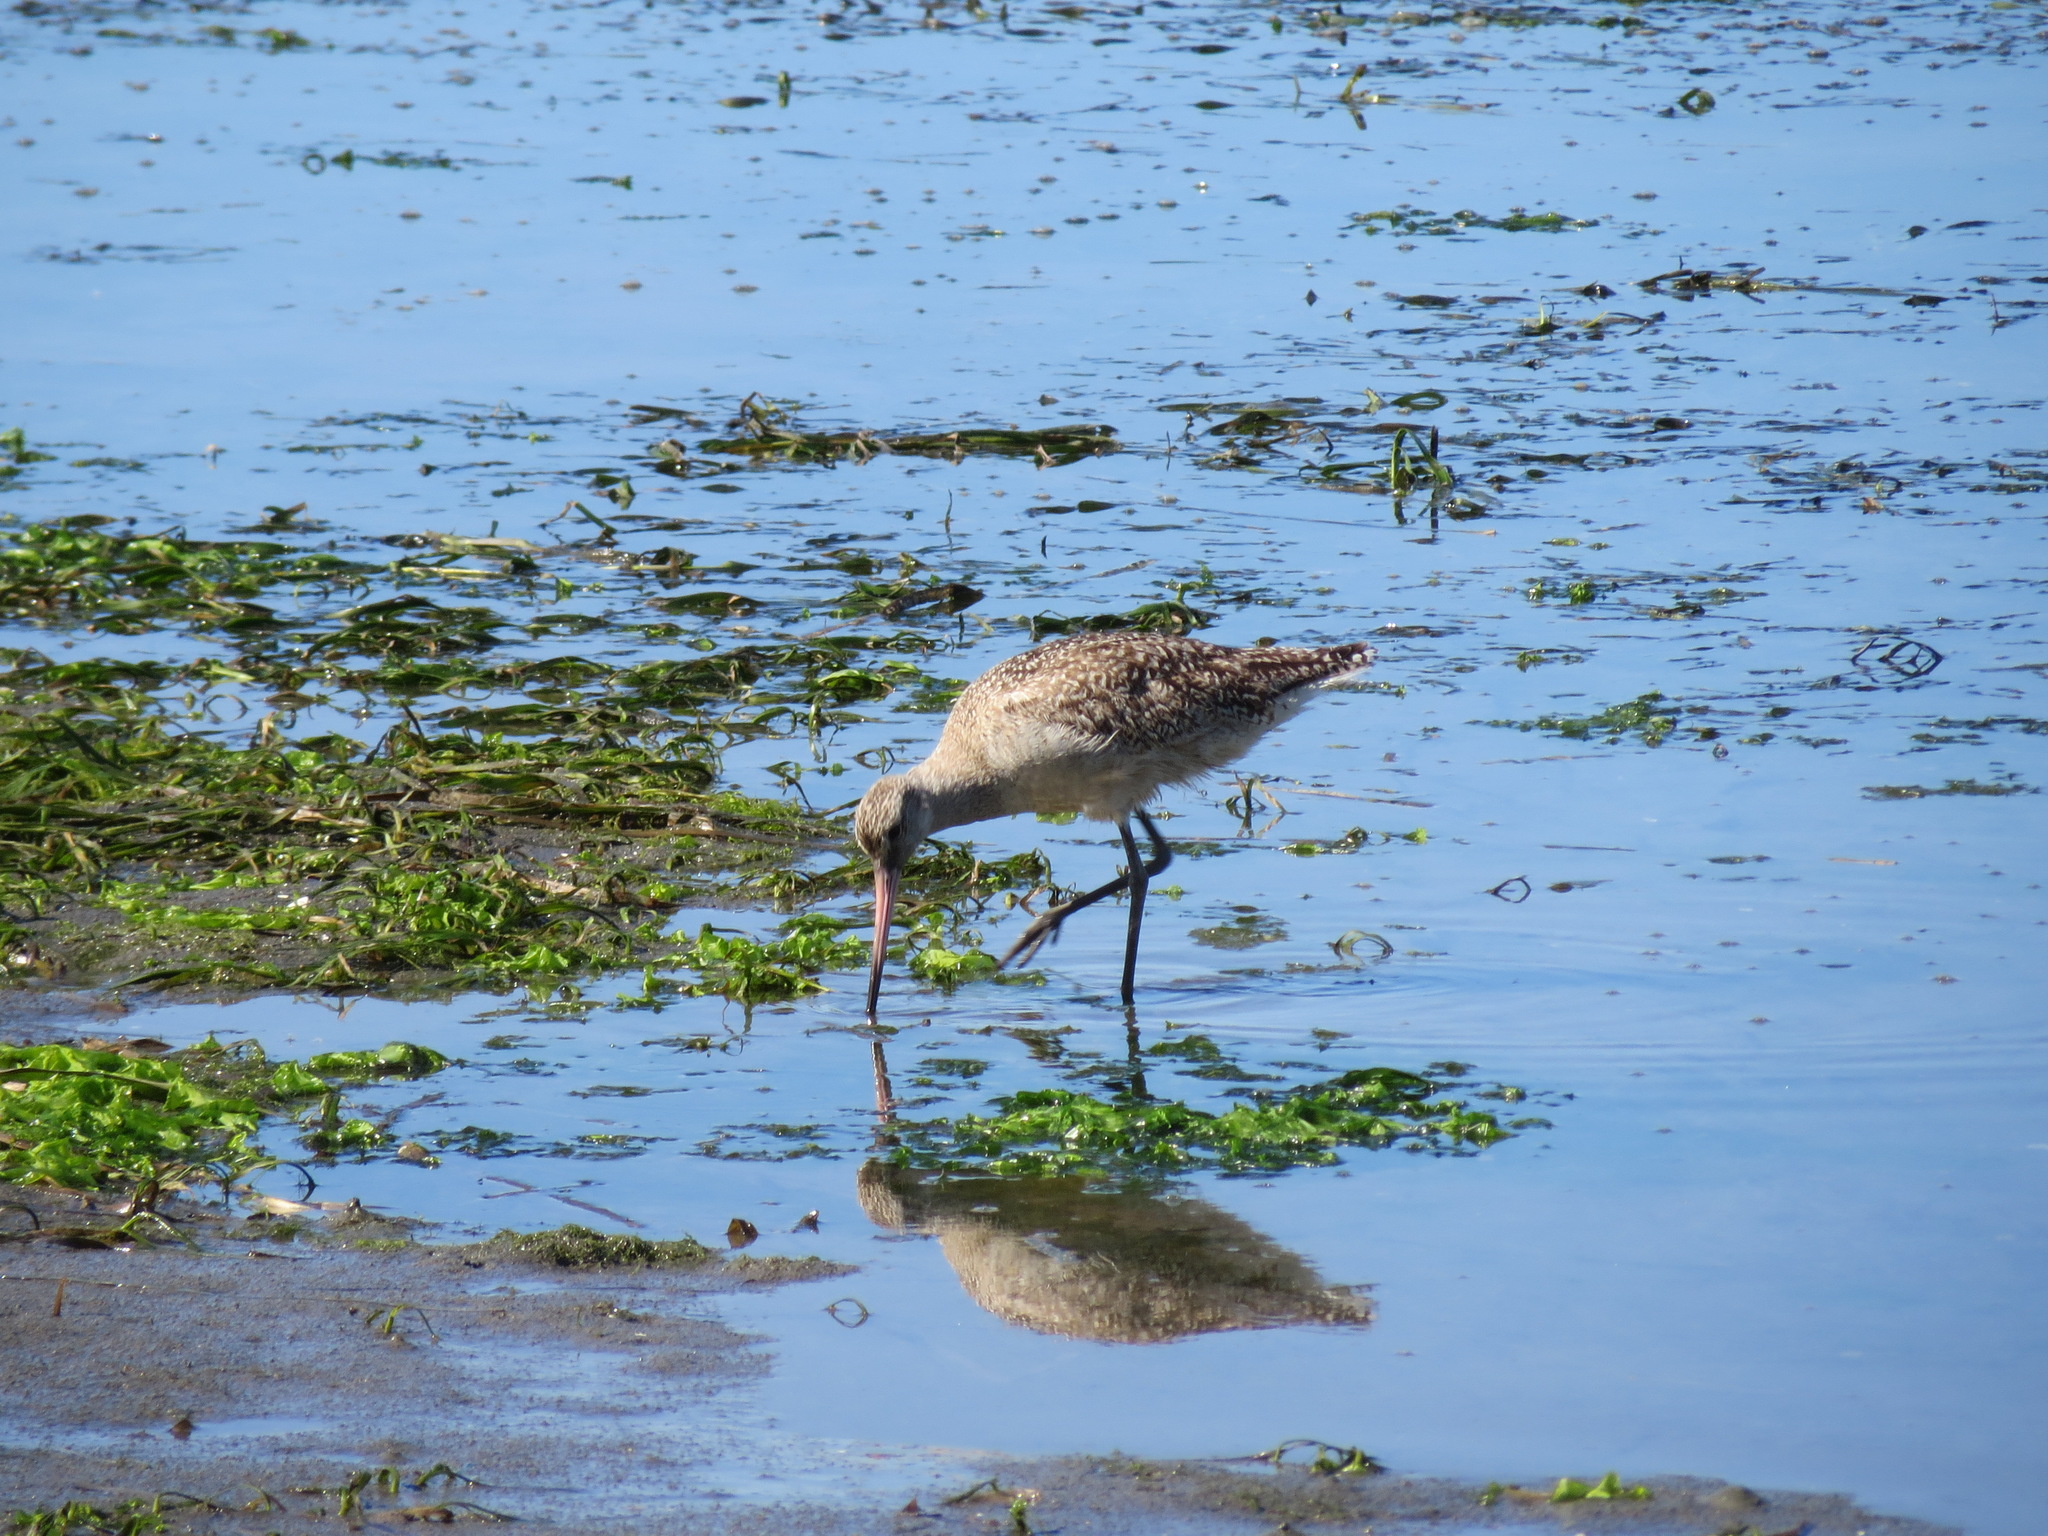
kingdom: Animalia
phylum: Chordata
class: Aves
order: Charadriiformes
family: Scolopacidae
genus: Limosa
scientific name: Limosa fedoa
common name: Marbled godwit
